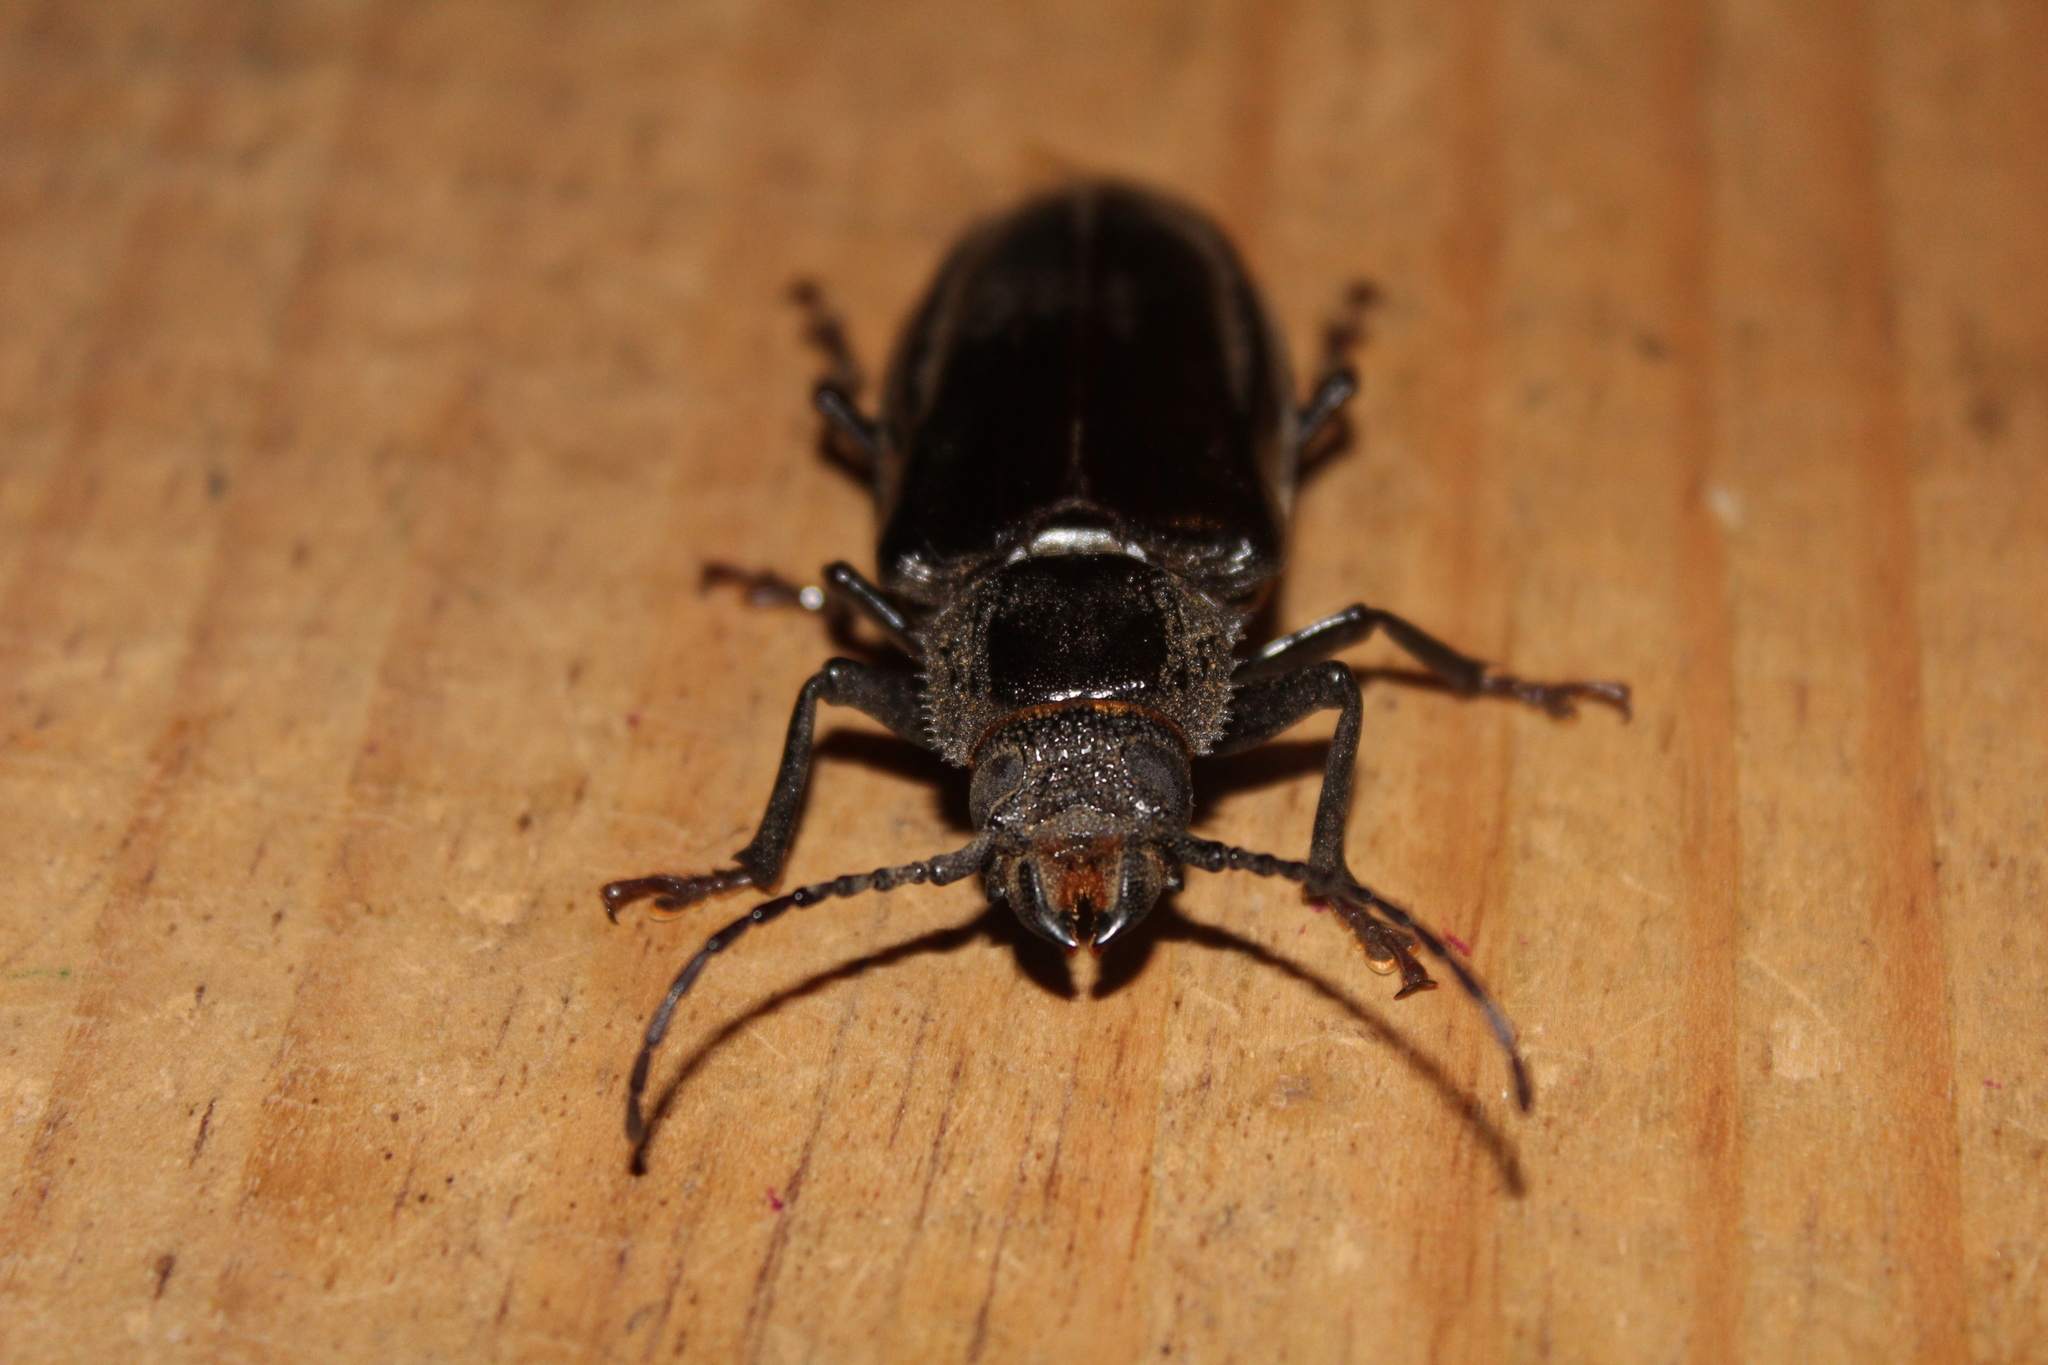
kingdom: Animalia
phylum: Arthropoda
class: Insecta
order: Coleoptera
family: Cerambycidae
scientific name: Cerambycidae
